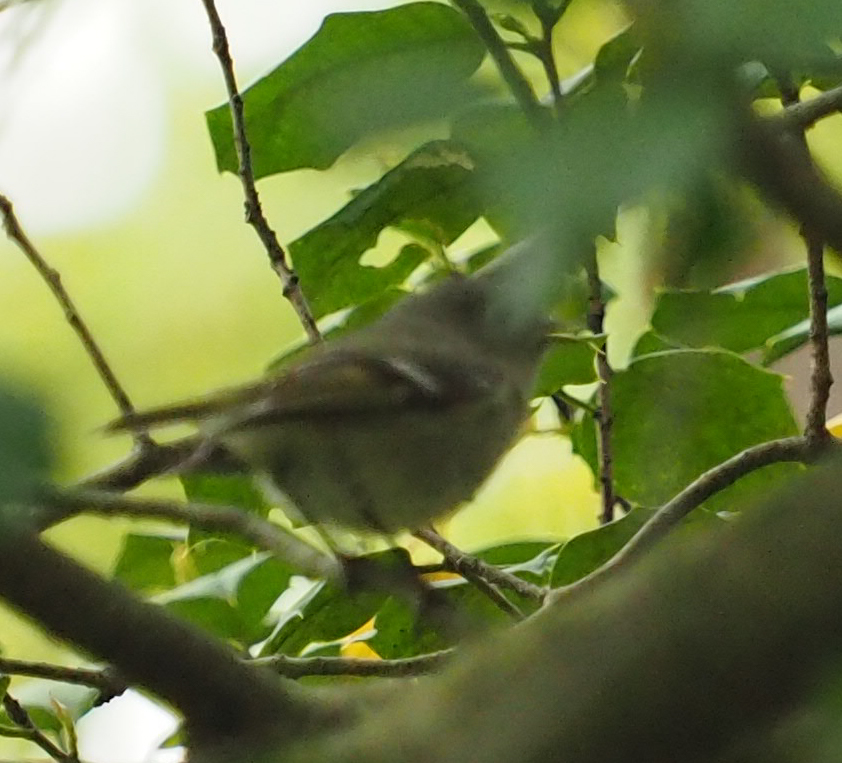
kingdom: Animalia
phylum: Chordata
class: Aves
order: Passeriformes
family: Regulidae
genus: Regulus
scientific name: Regulus calendula
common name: Ruby-crowned kinglet
